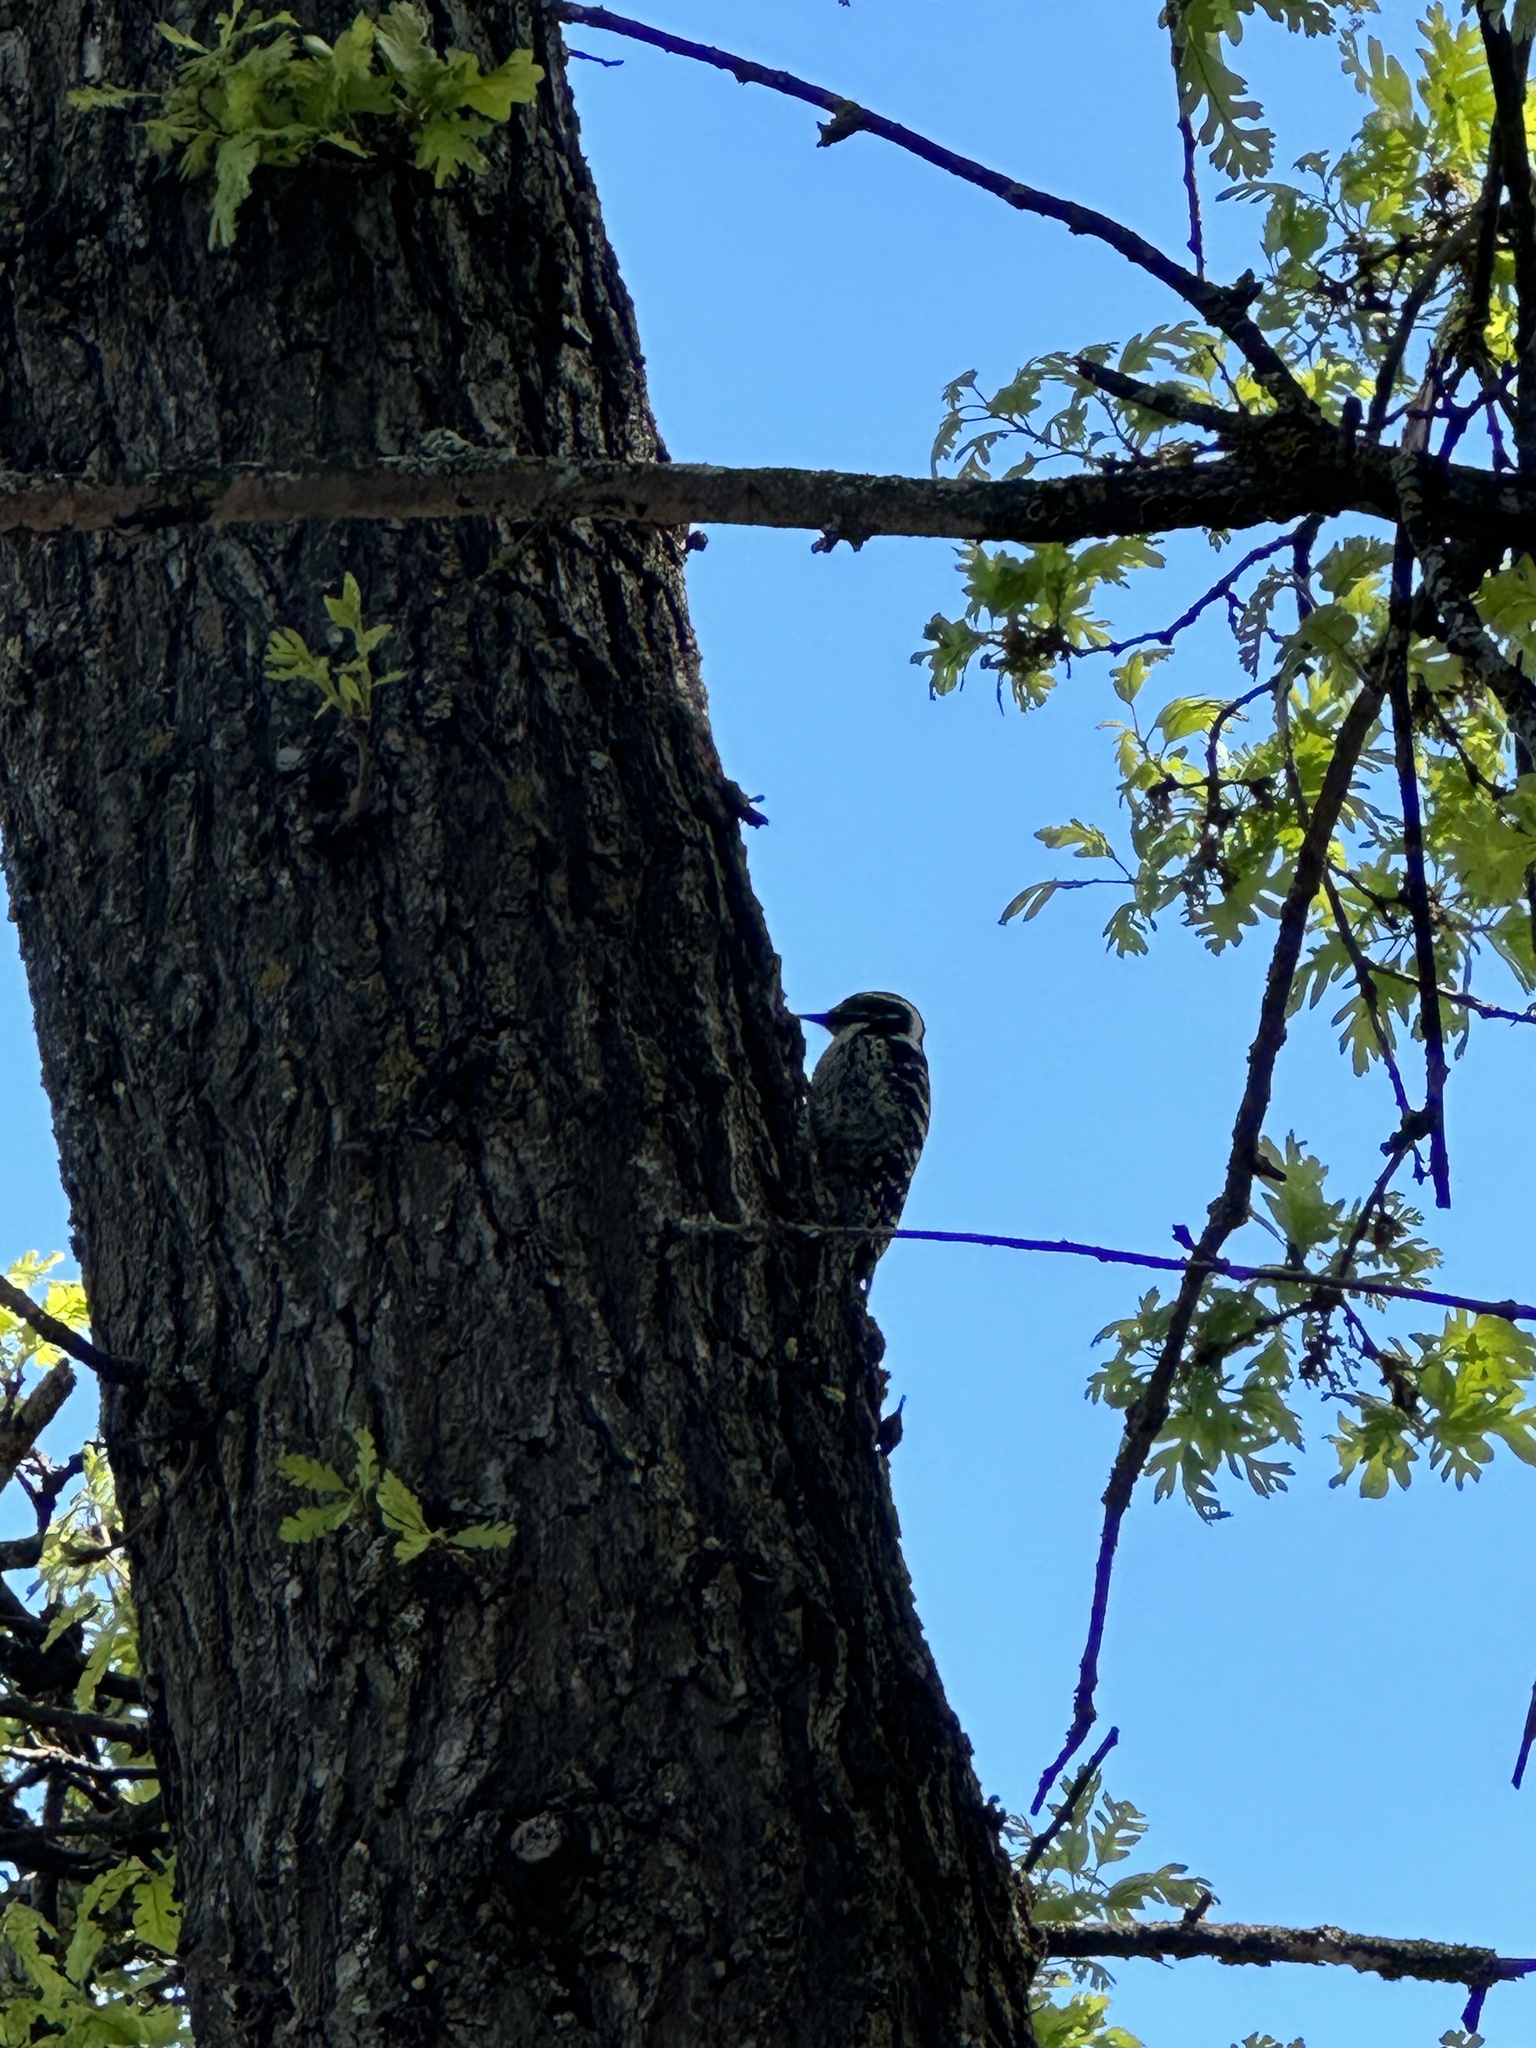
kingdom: Animalia
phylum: Chordata
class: Aves
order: Piciformes
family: Picidae
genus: Dryobates
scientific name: Dryobates nuttallii
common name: Nuttall's woodpecker
